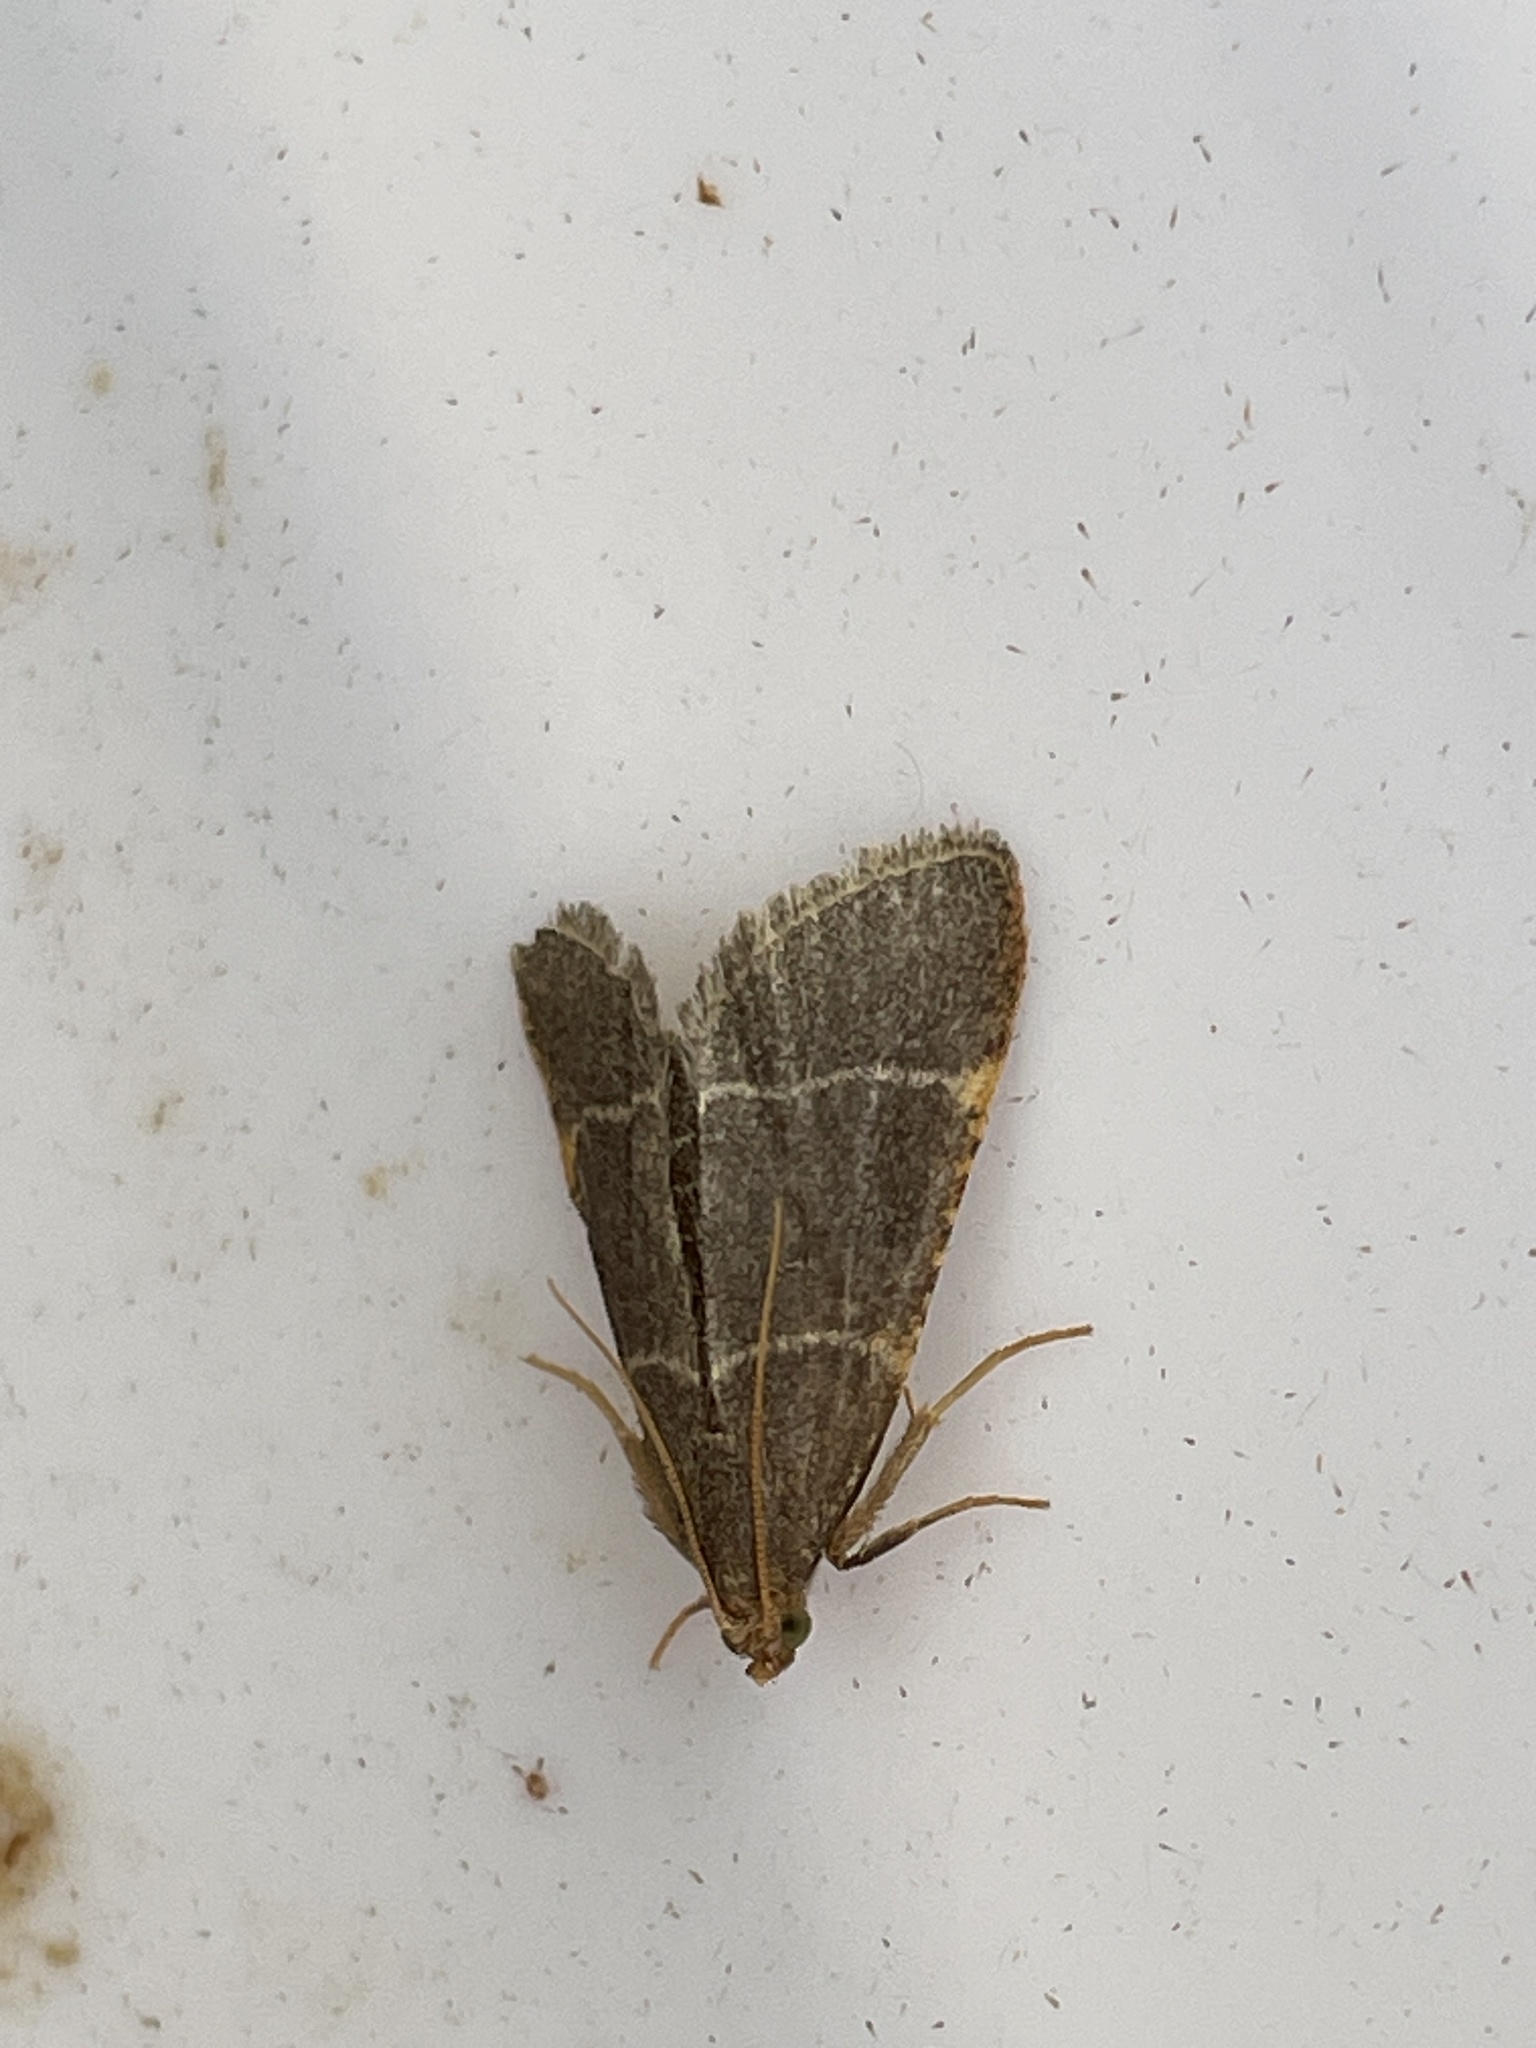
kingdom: Animalia
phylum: Arthropoda
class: Insecta
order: Lepidoptera
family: Pyralidae
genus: Hypsopygia
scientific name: Hypsopygia glaucinalis
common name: Double-striped tabby
